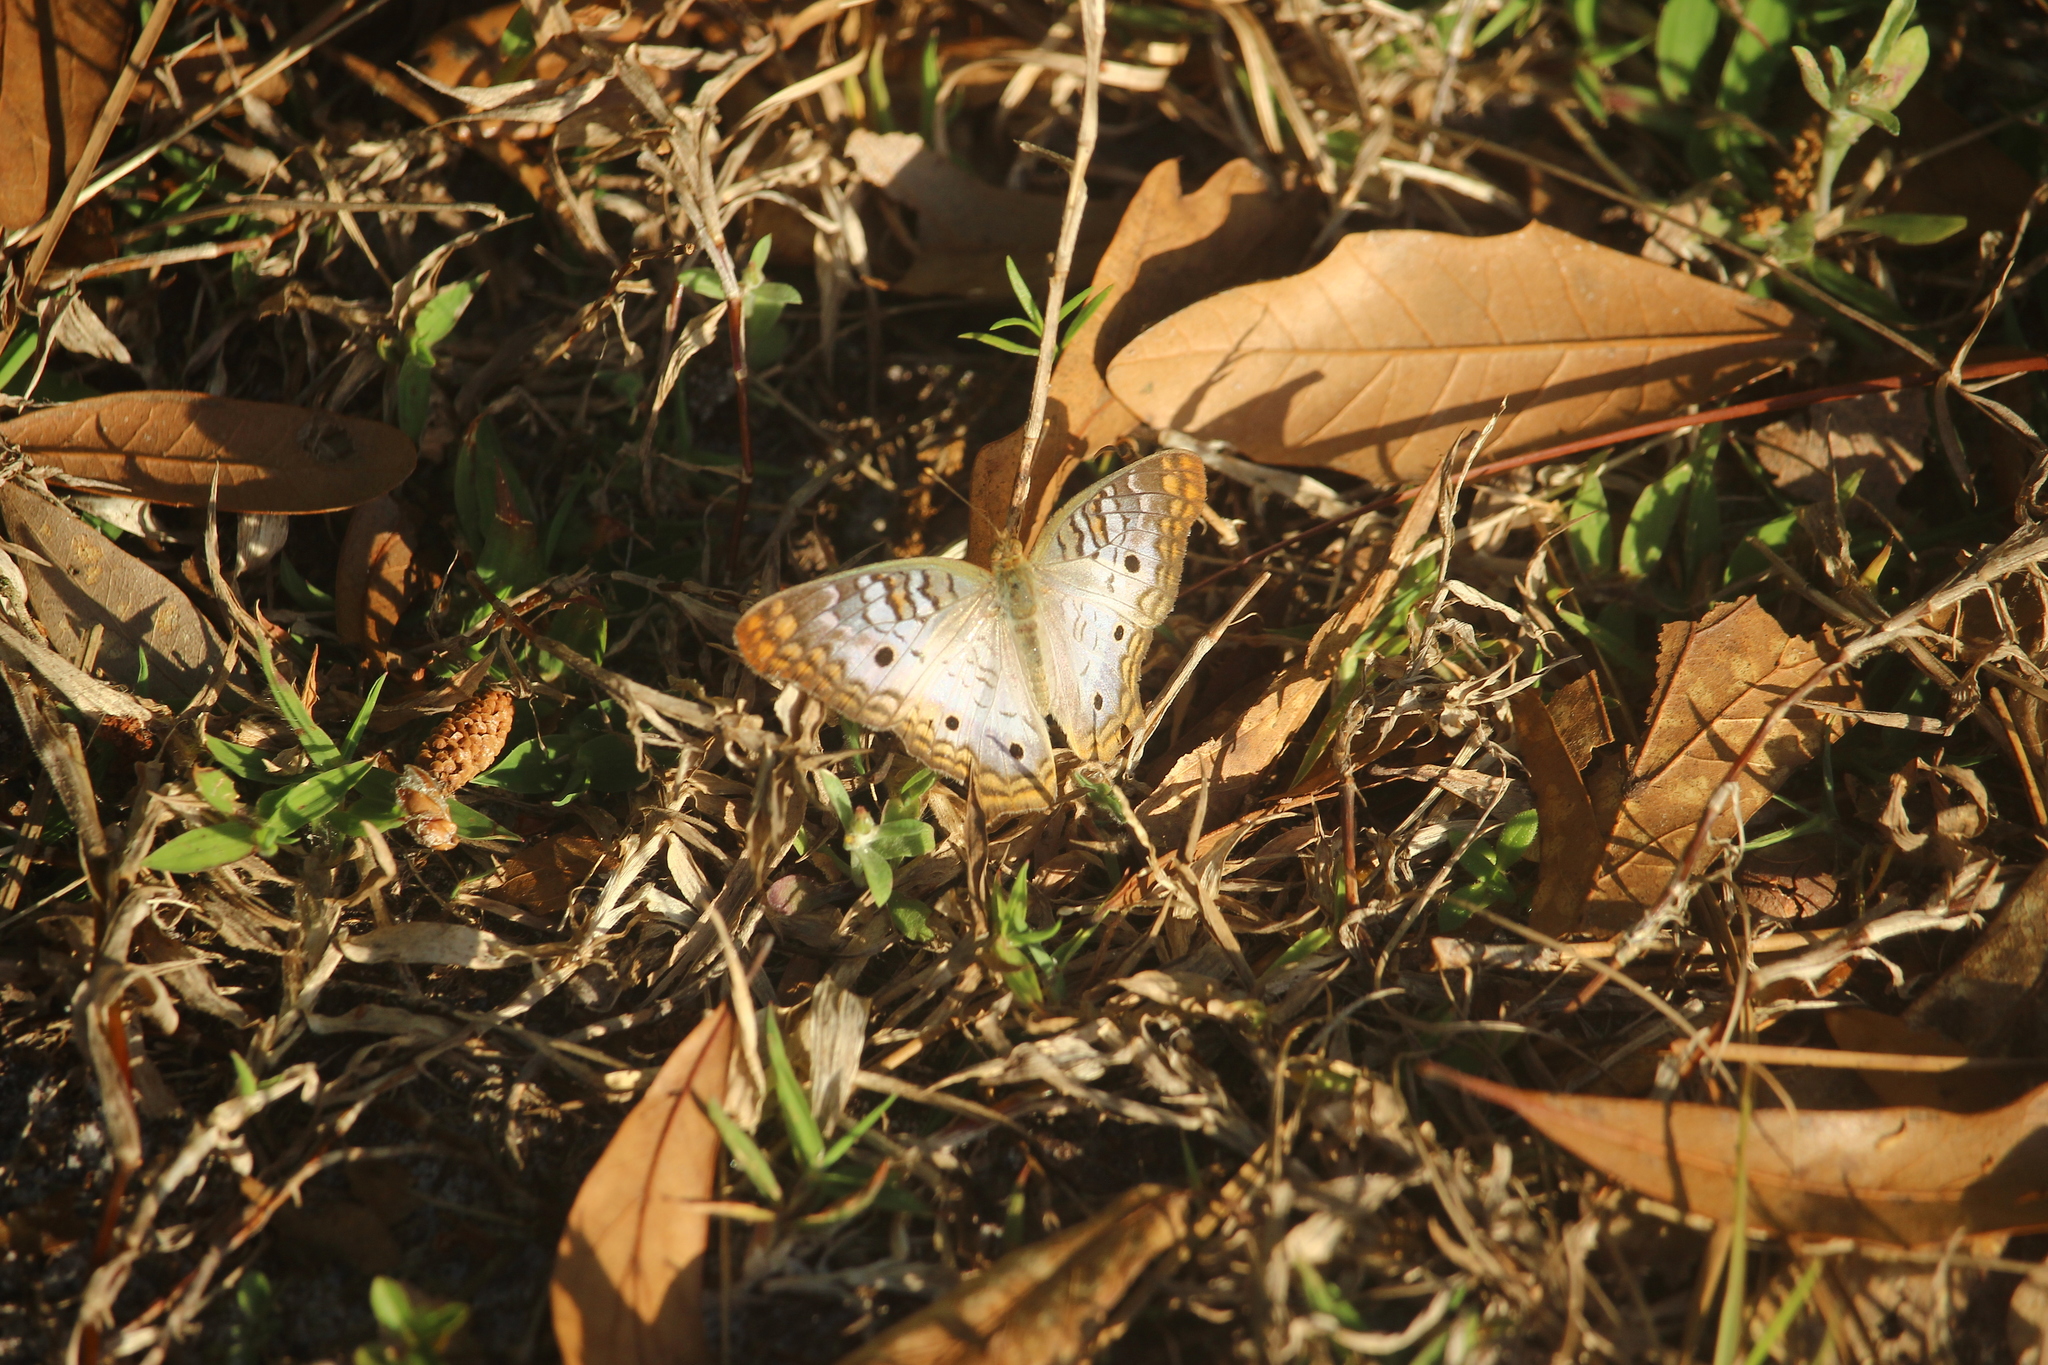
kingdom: Animalia
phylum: Arthropoda
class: Insecta
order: Lepidoptera
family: Nymphalidae
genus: Anartia
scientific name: Anartia jatrophae
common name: White peacock
